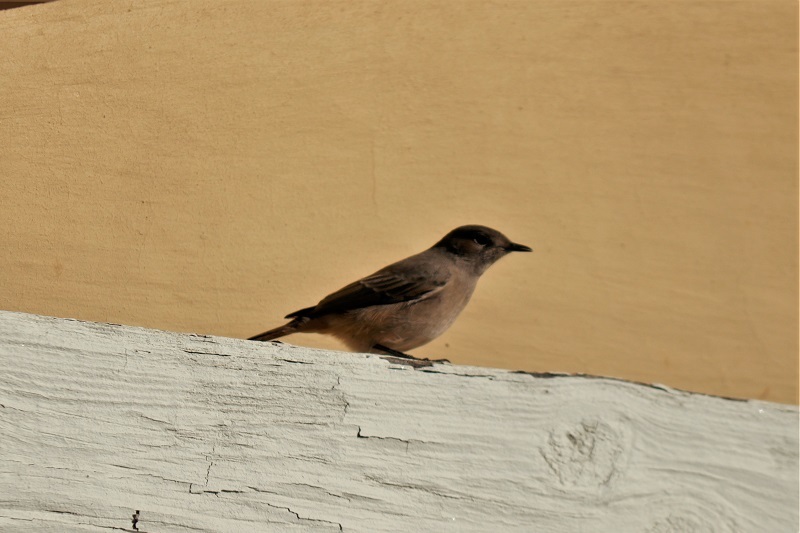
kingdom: Animalia
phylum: Chordata
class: Aves
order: Passeriformes
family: Muscicapidae
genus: Oenanthe
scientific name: Oenanthe familiaris
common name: Familiar chat
